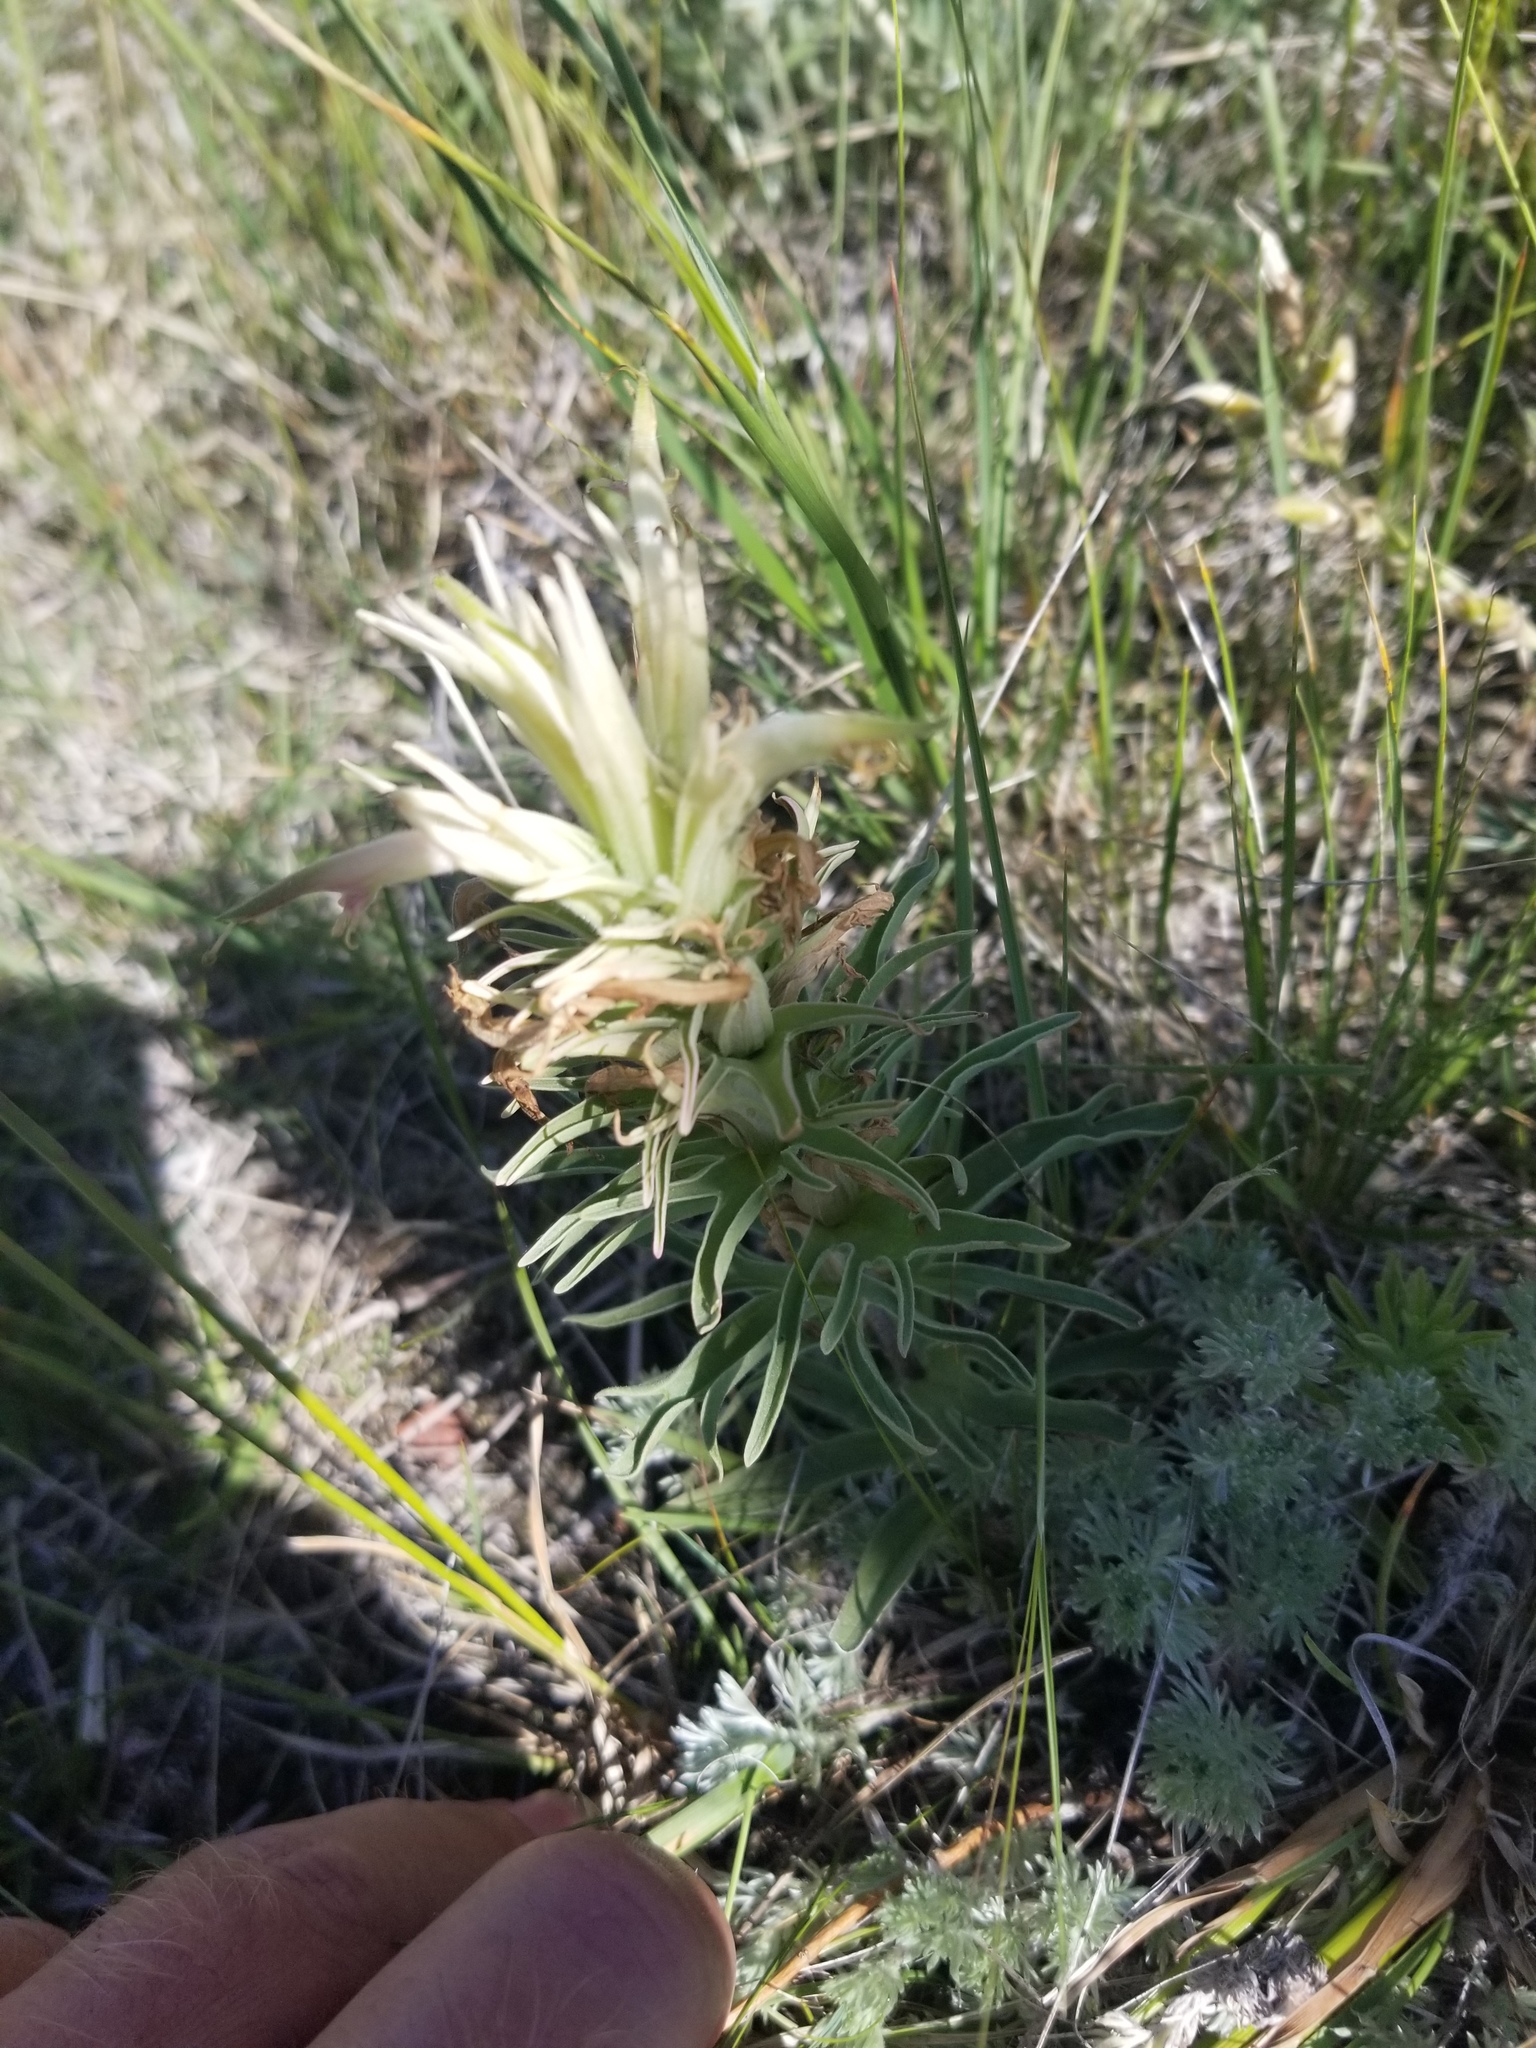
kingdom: Plantae
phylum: Tracheophyta
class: Magnoliopsida
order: Lamiales
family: Orobanchaceae
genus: Castilleja
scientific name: Castilleja sessiliflora
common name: Downy paintbrush
